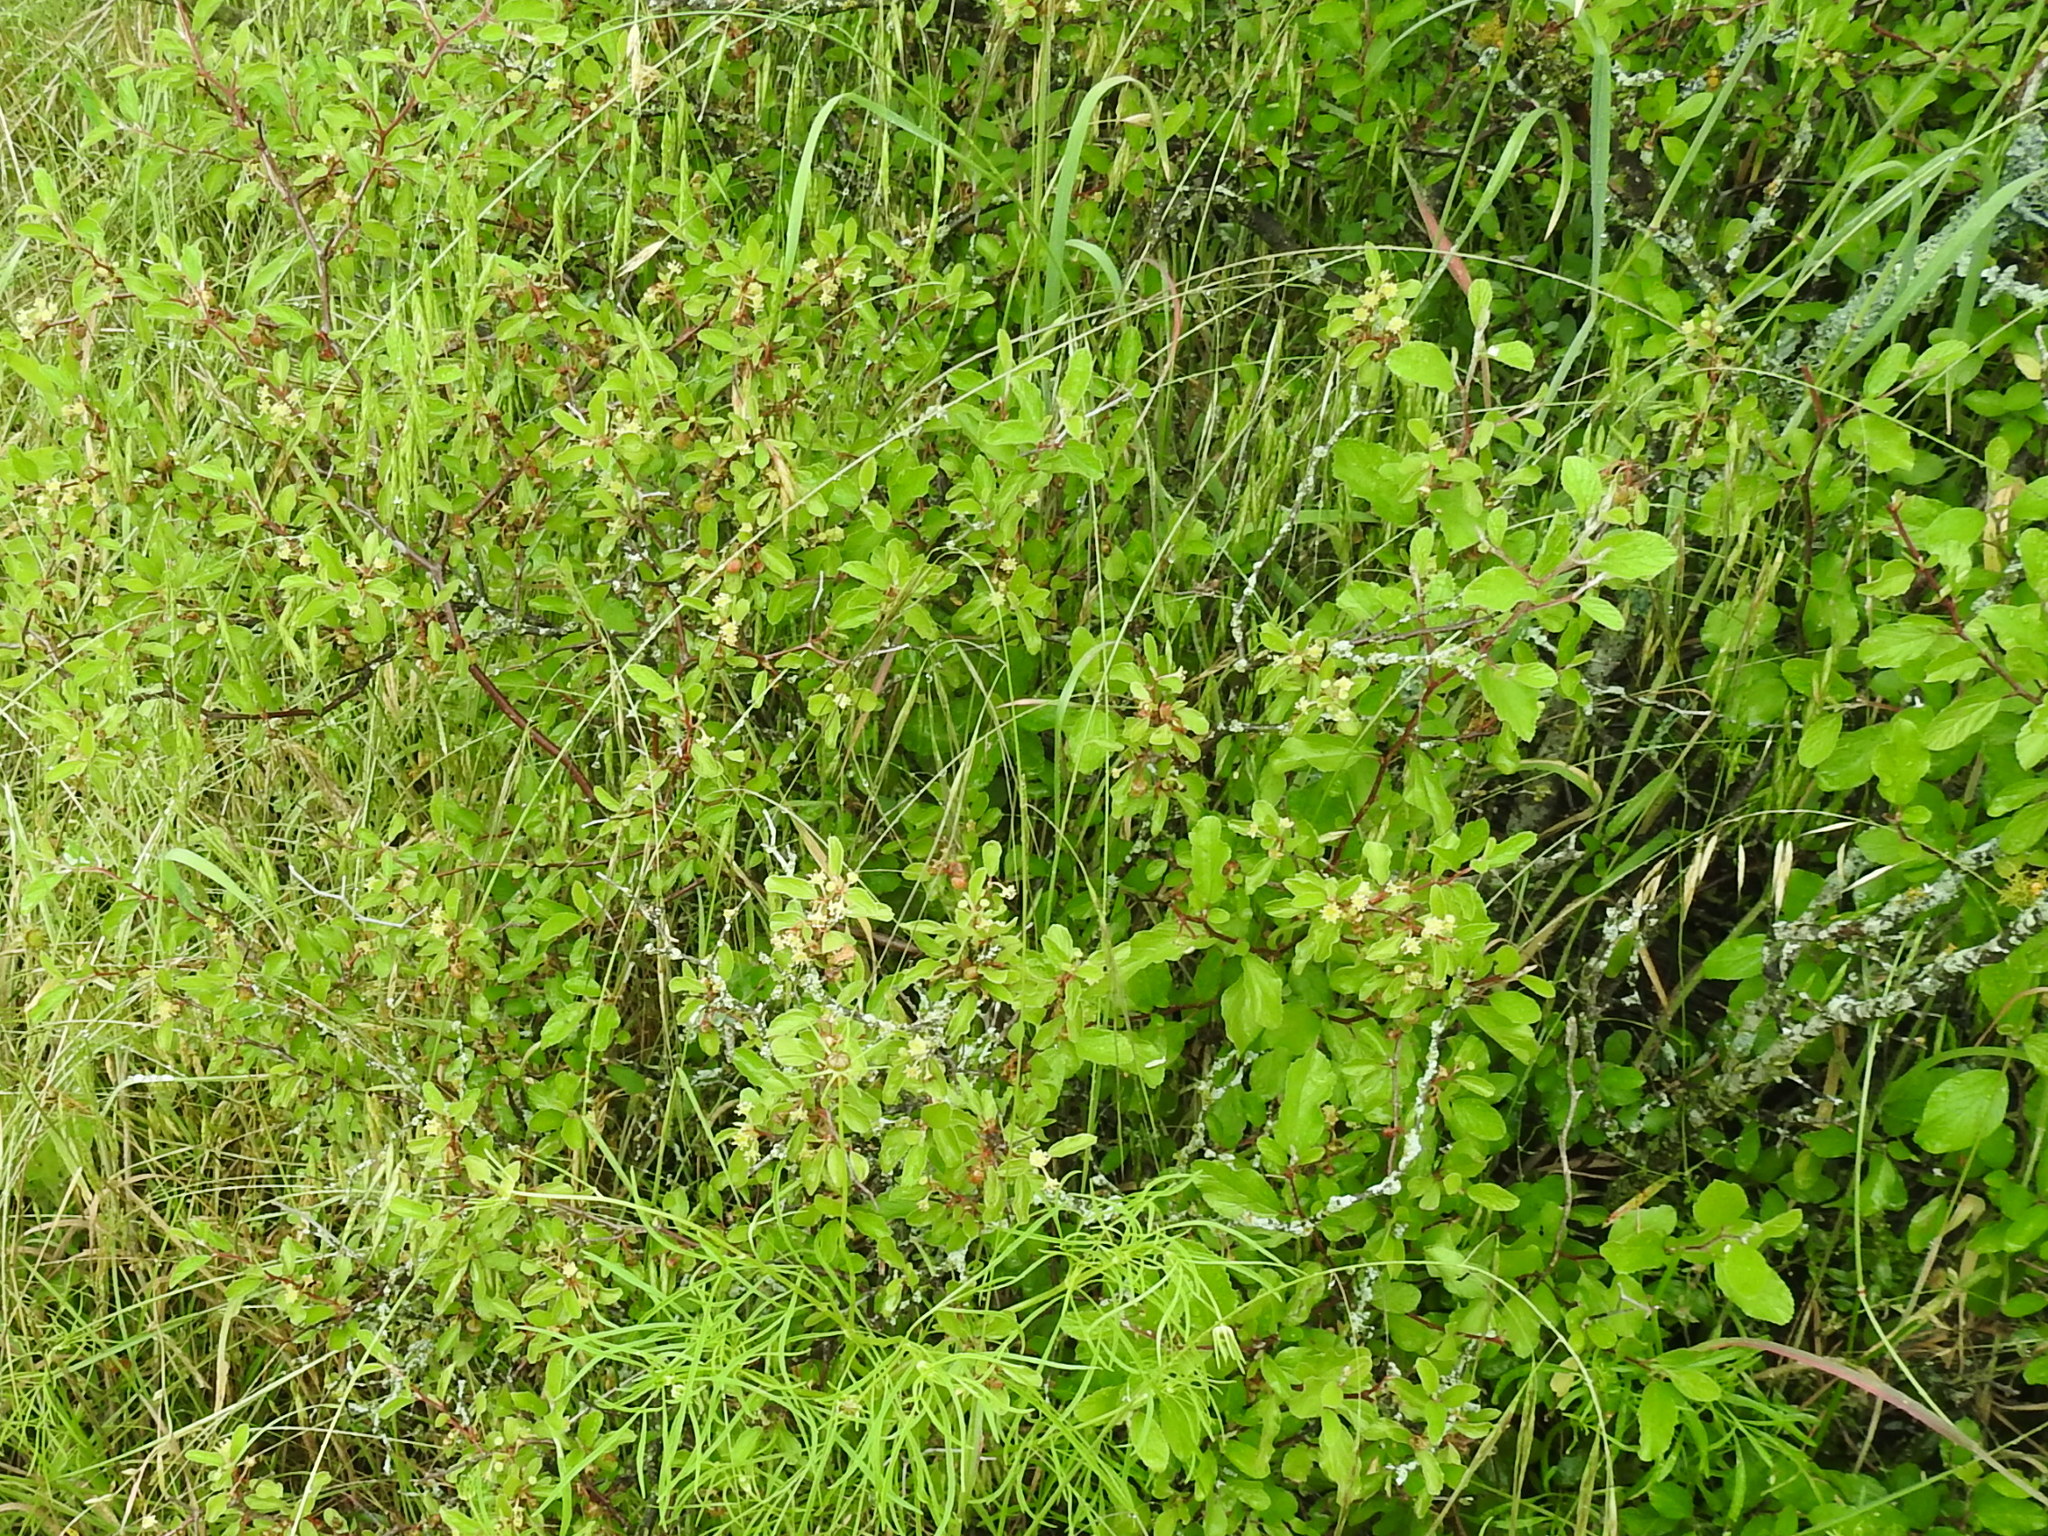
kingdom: Plantae
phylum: Tracheophyta
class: Magnoliopsida
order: Rosales
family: Rhamnaceae
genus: Colubrina
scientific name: Colubrina texensis
